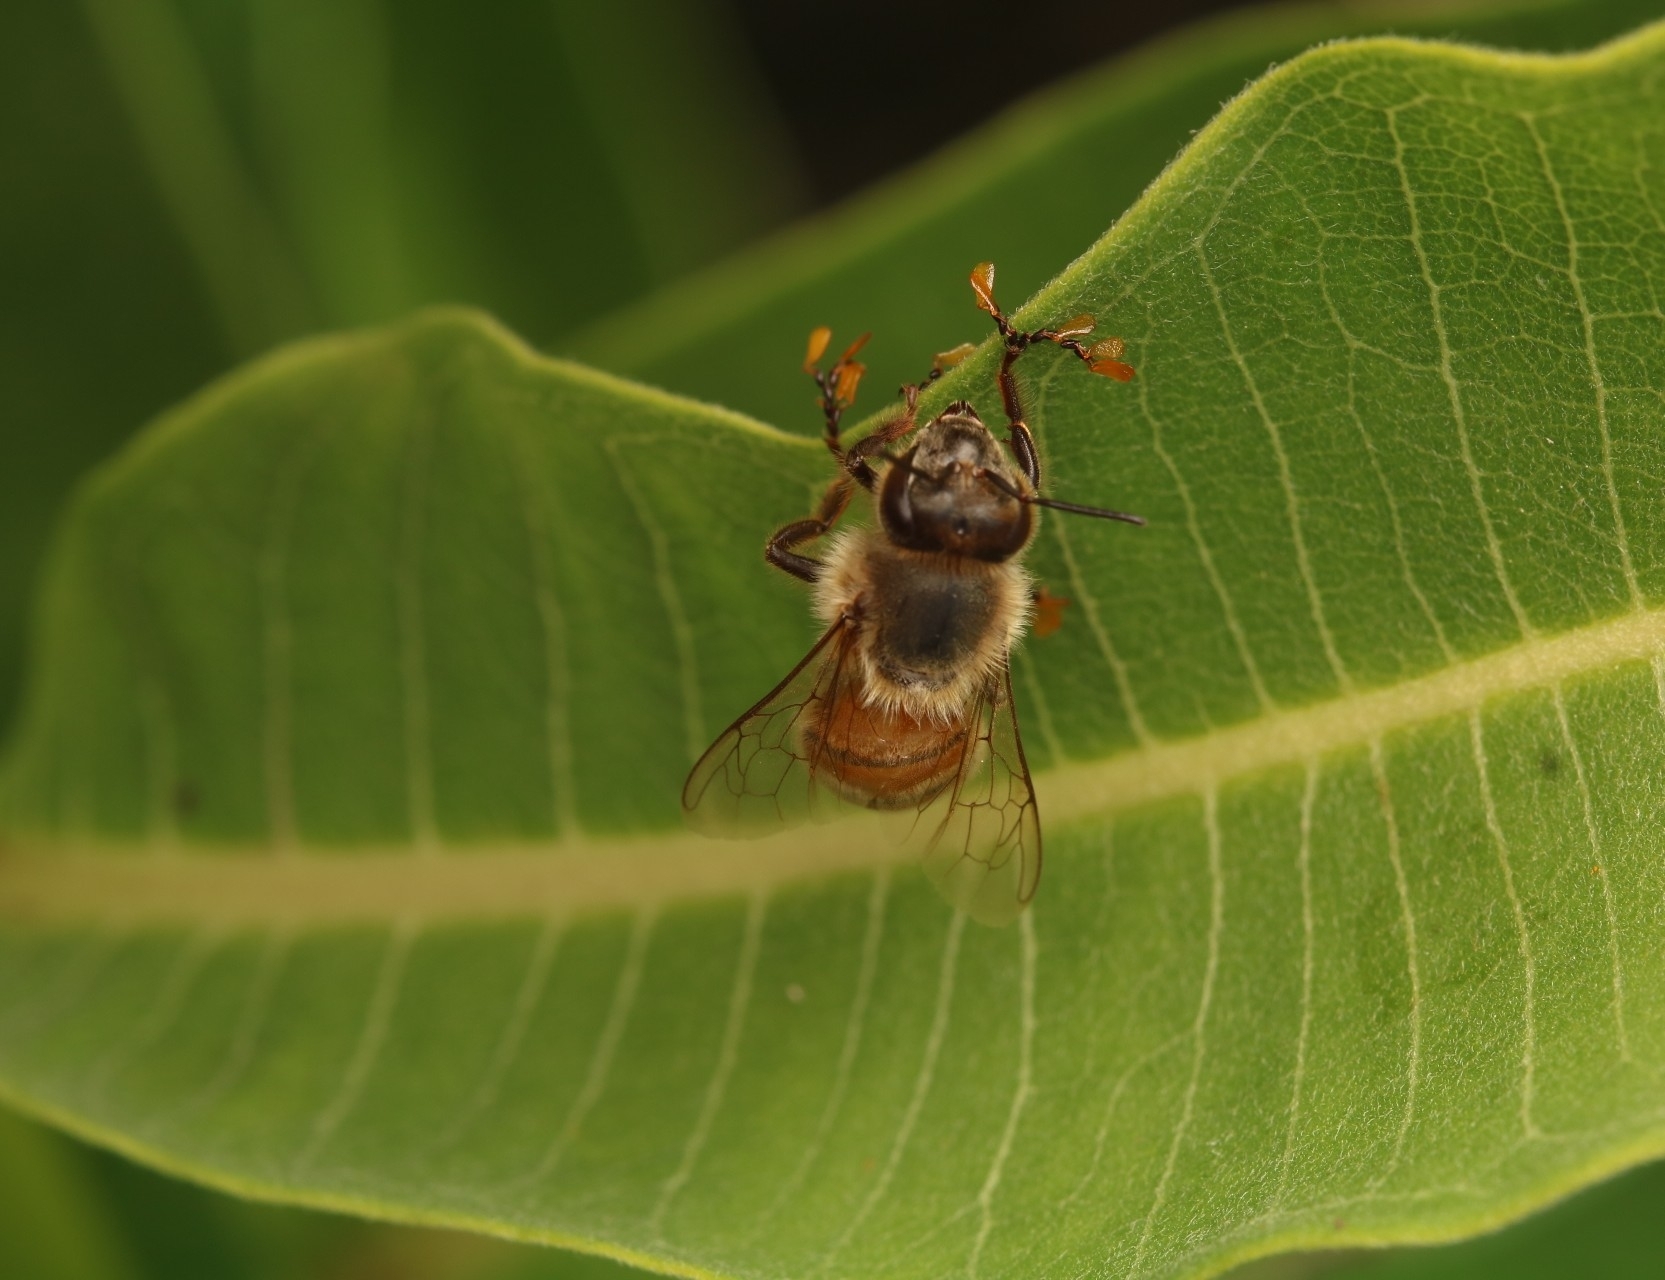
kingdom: Animalia
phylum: Arthropoda
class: Insecta
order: Hymenoptera
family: Apidae
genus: Apis
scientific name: Apis mellifera
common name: Honey bee
